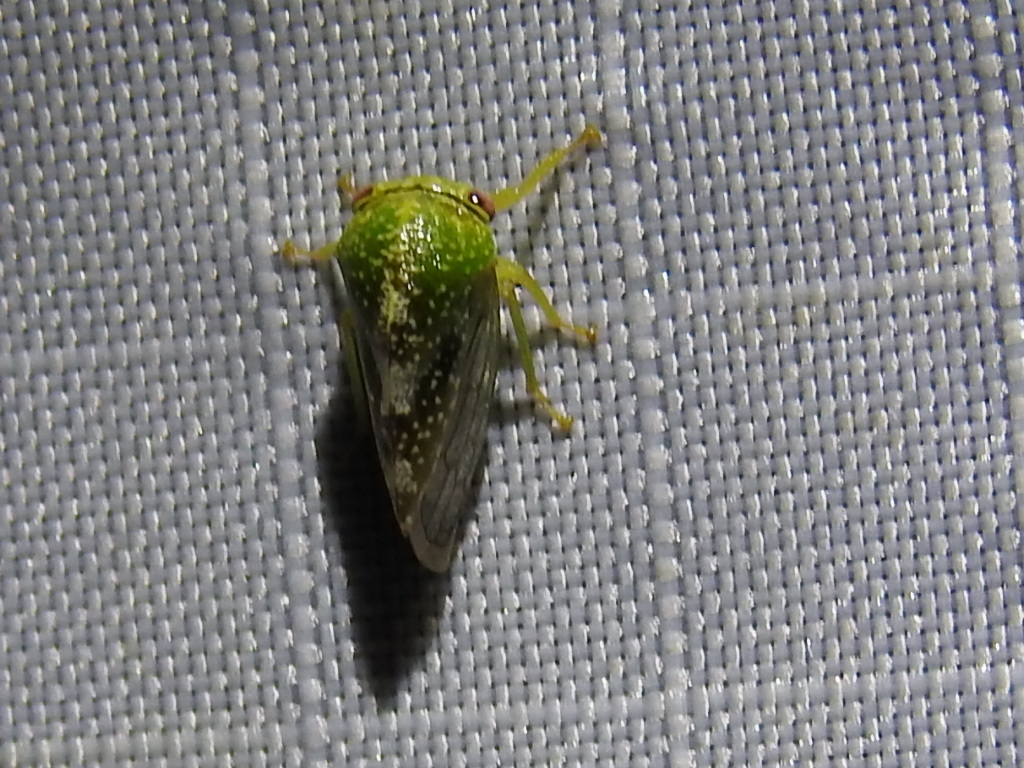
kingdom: Animalia
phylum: Arthropoda
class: Insecta
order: Hemiptera
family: Membracidae
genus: Cyrtolobus
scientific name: Cyrtolobus dixianus
